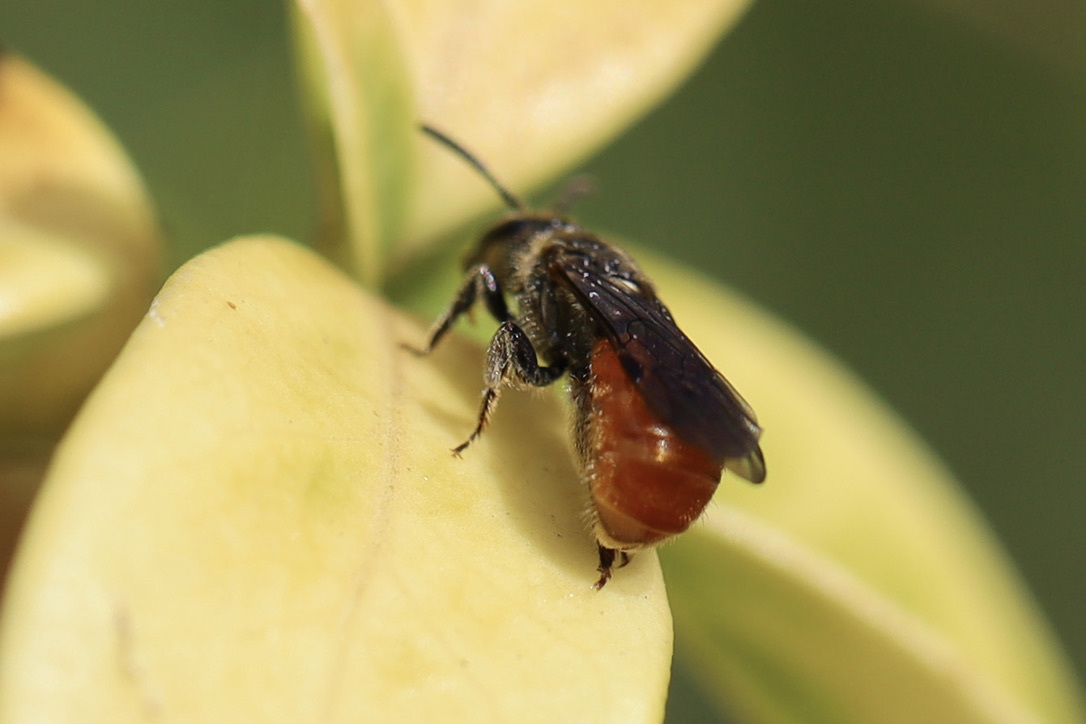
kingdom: Animalia
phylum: Arthropoda
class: Insecta
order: Hymenoptera
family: Halictidae
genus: Lasioglossum
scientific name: Lasioglossum ovaliceps
